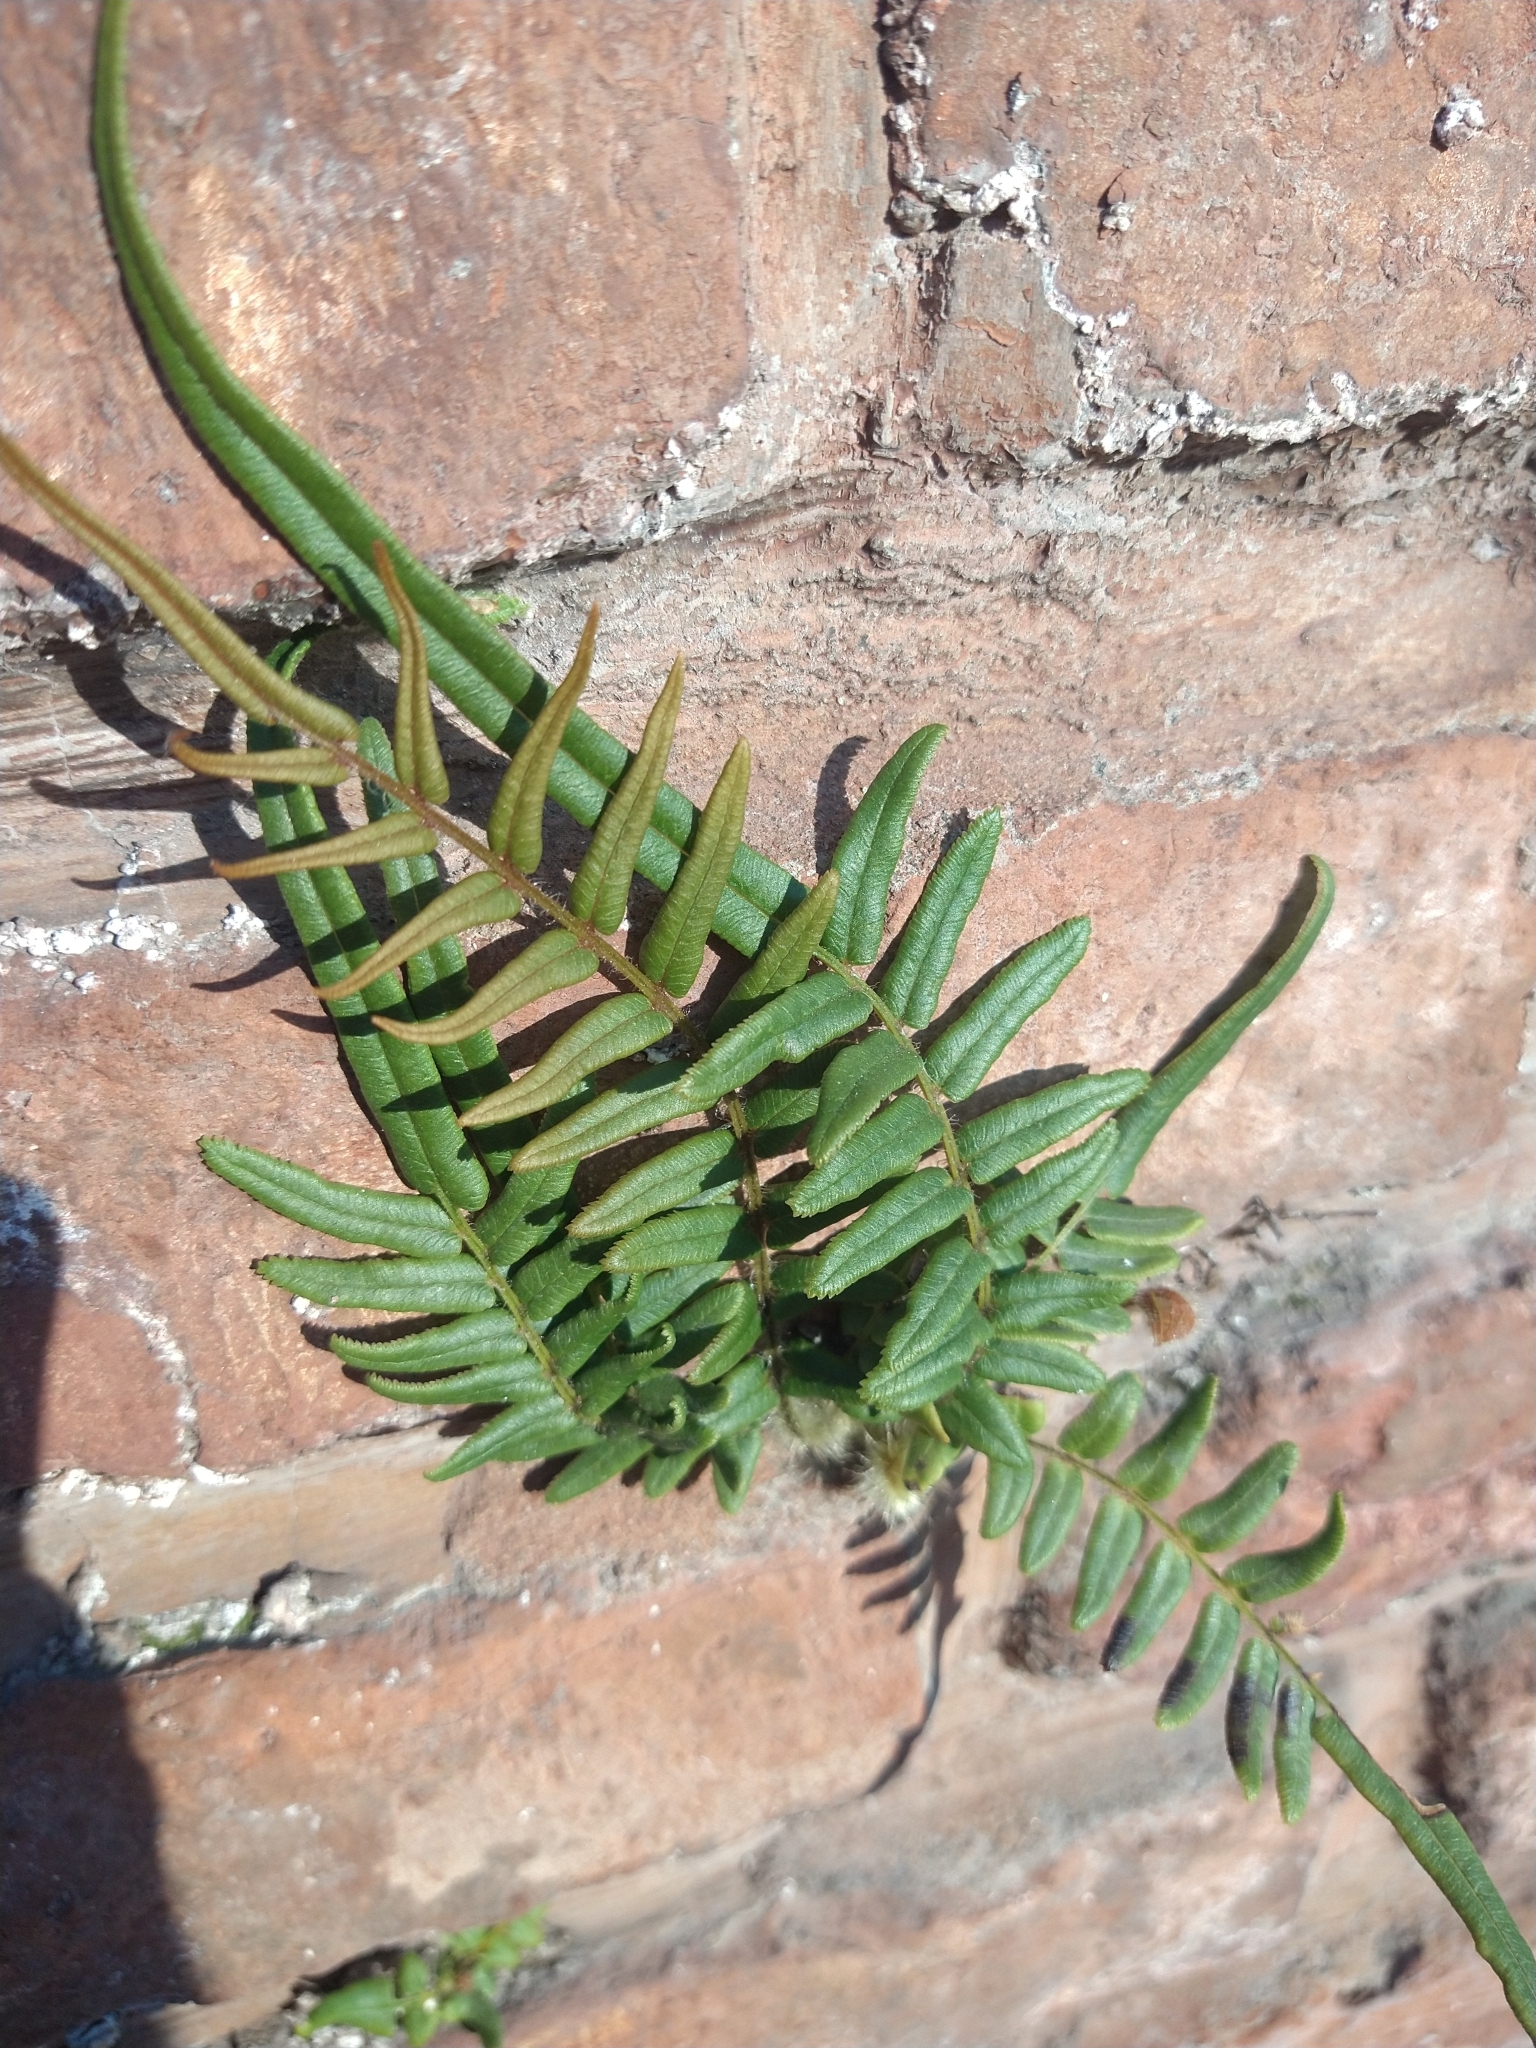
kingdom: Plantae
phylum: Tracheophyta
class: Polypodiopsida
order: Polypodiales
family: Pteridaceae
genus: Pteris
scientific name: Pteris vittata
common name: Ladder brake
